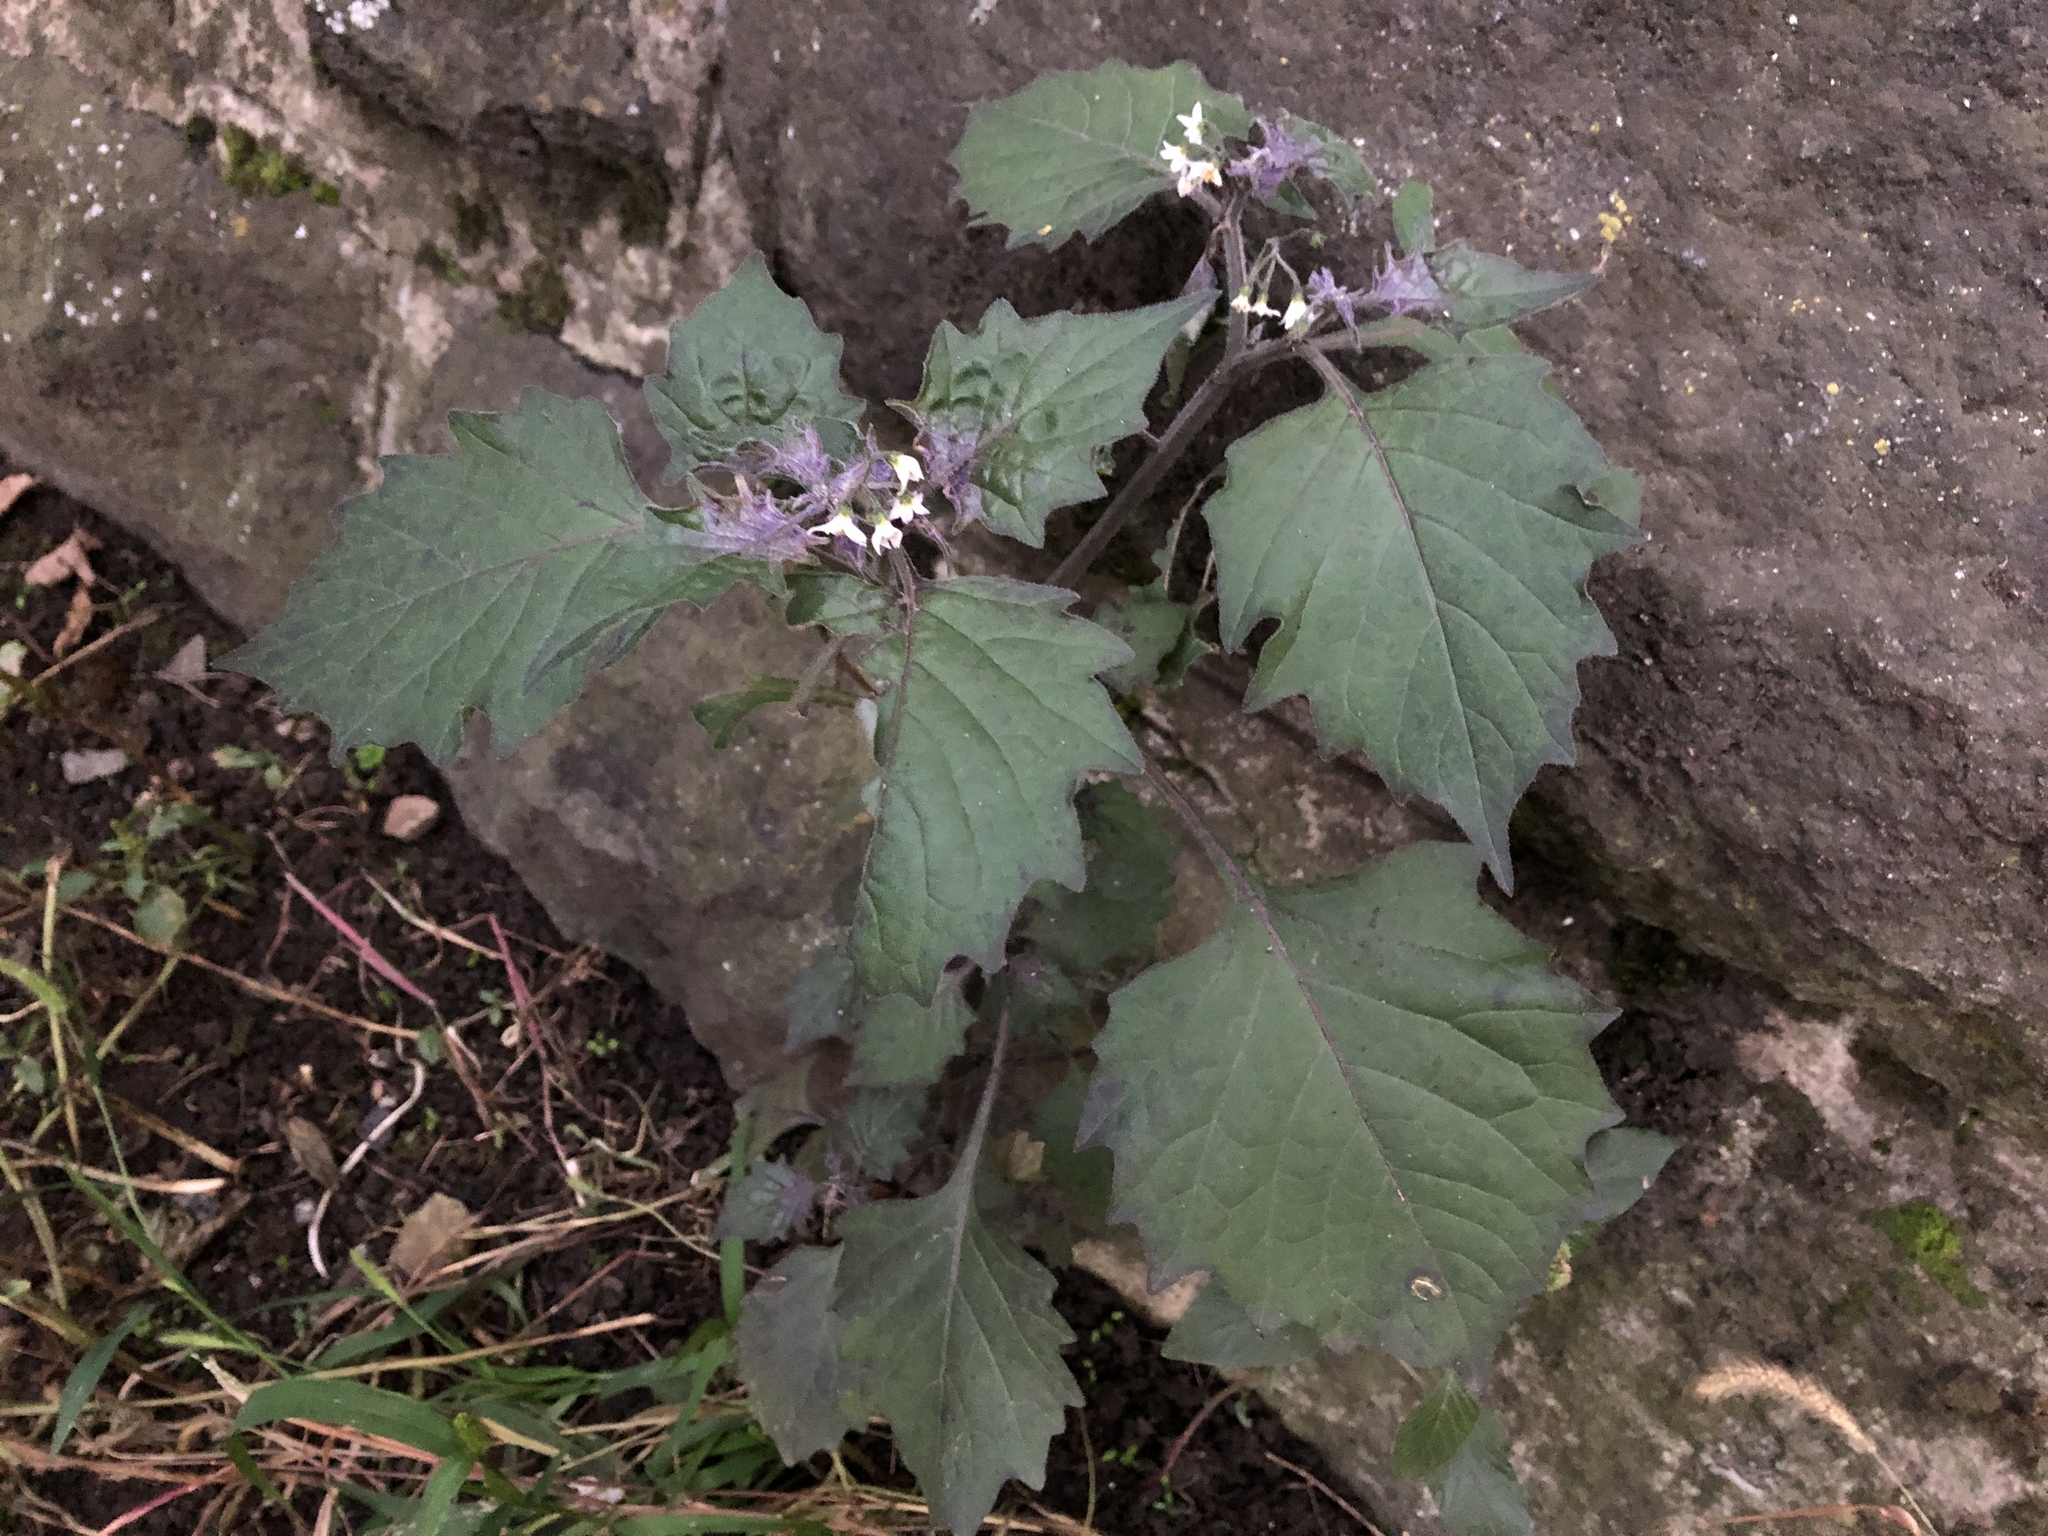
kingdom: Plantae
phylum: Tracheophyta
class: Magnoliopsida
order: Solanales
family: Solanaceae
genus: Solanum
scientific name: Solanum nigrum
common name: Black nightshade
